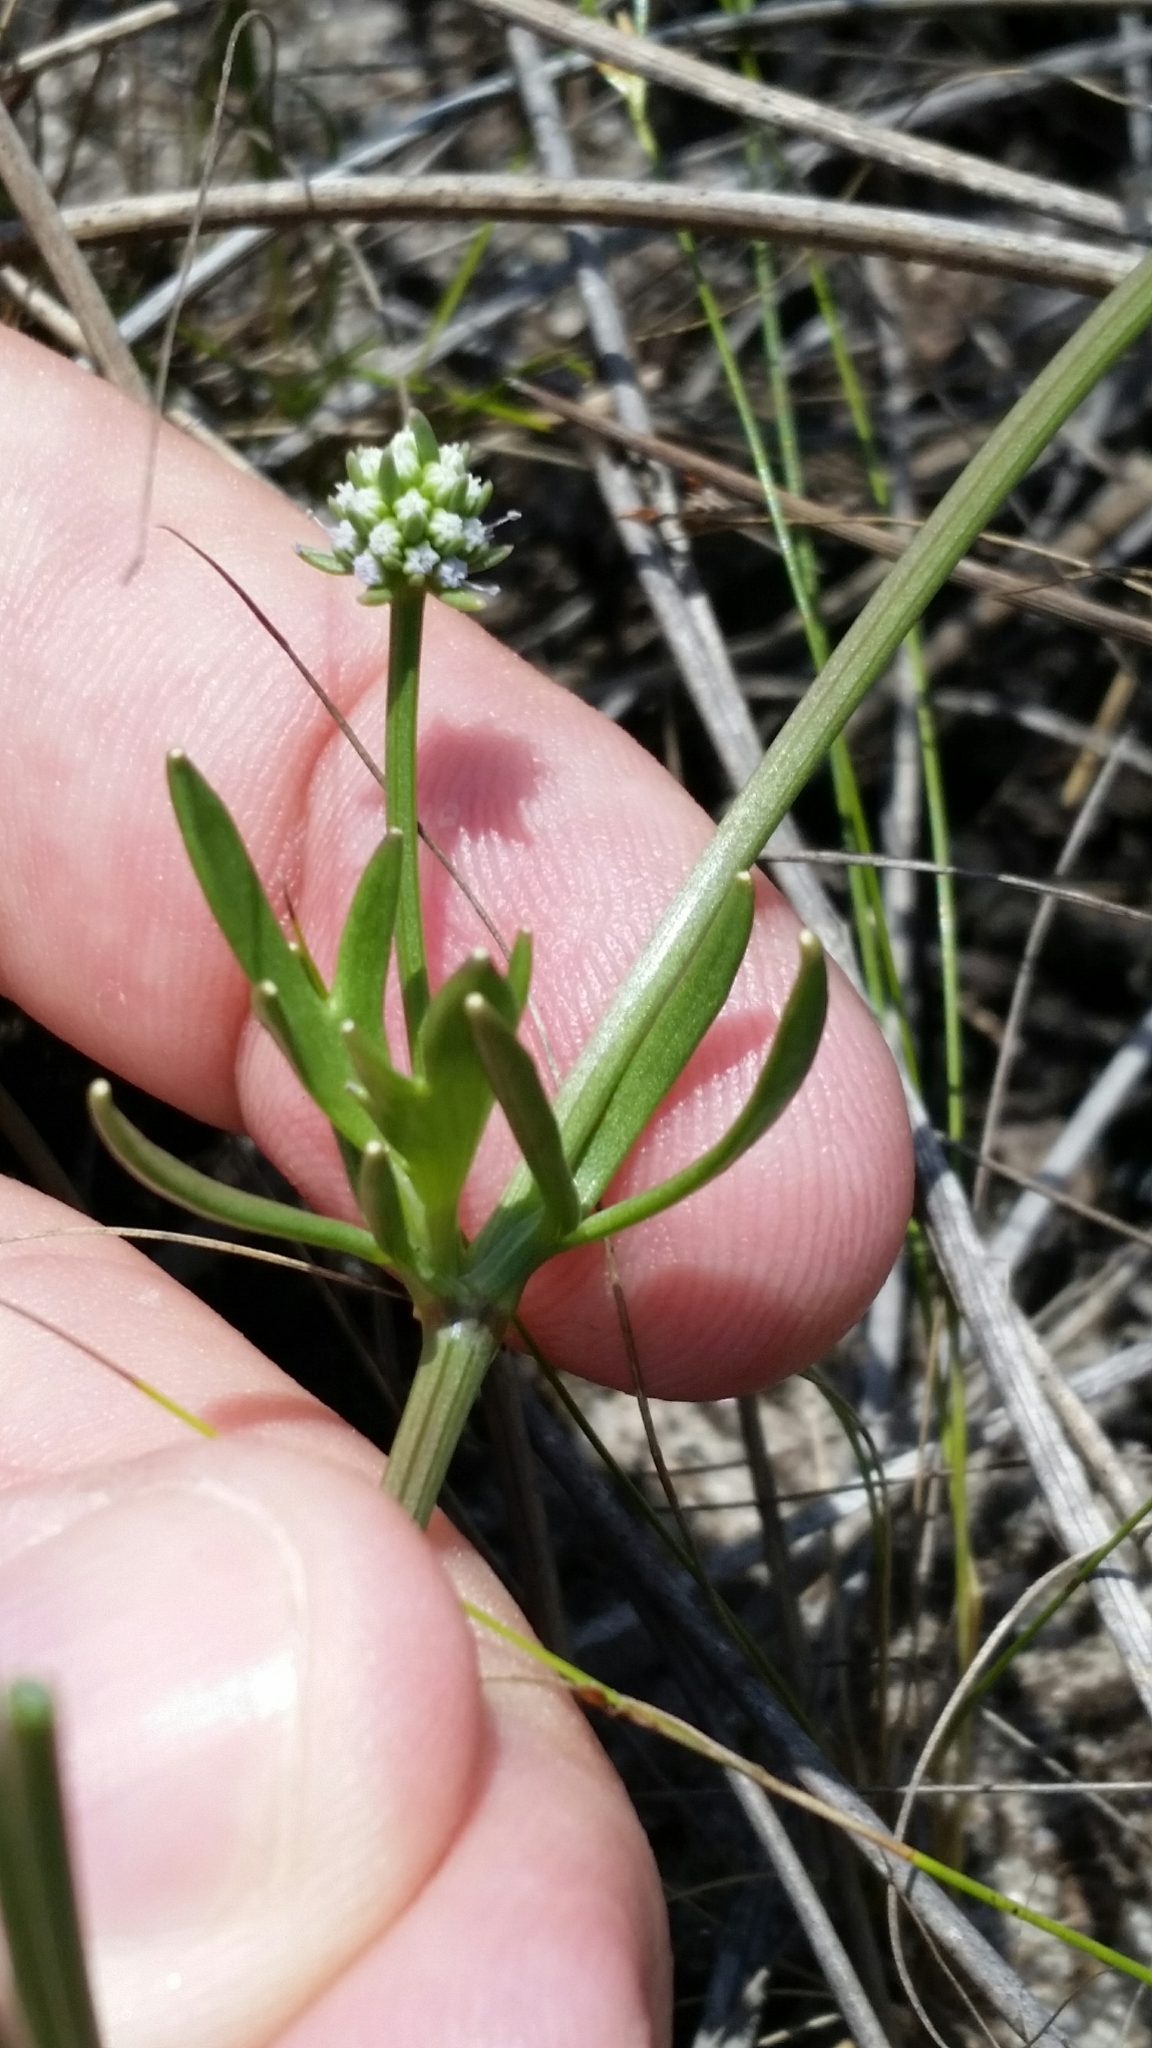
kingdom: Plantae
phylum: Tracheophyta
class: Magnoliopsida
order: Apiales
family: Apiaceae
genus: Eryngium
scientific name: Eryngium baldwinii
